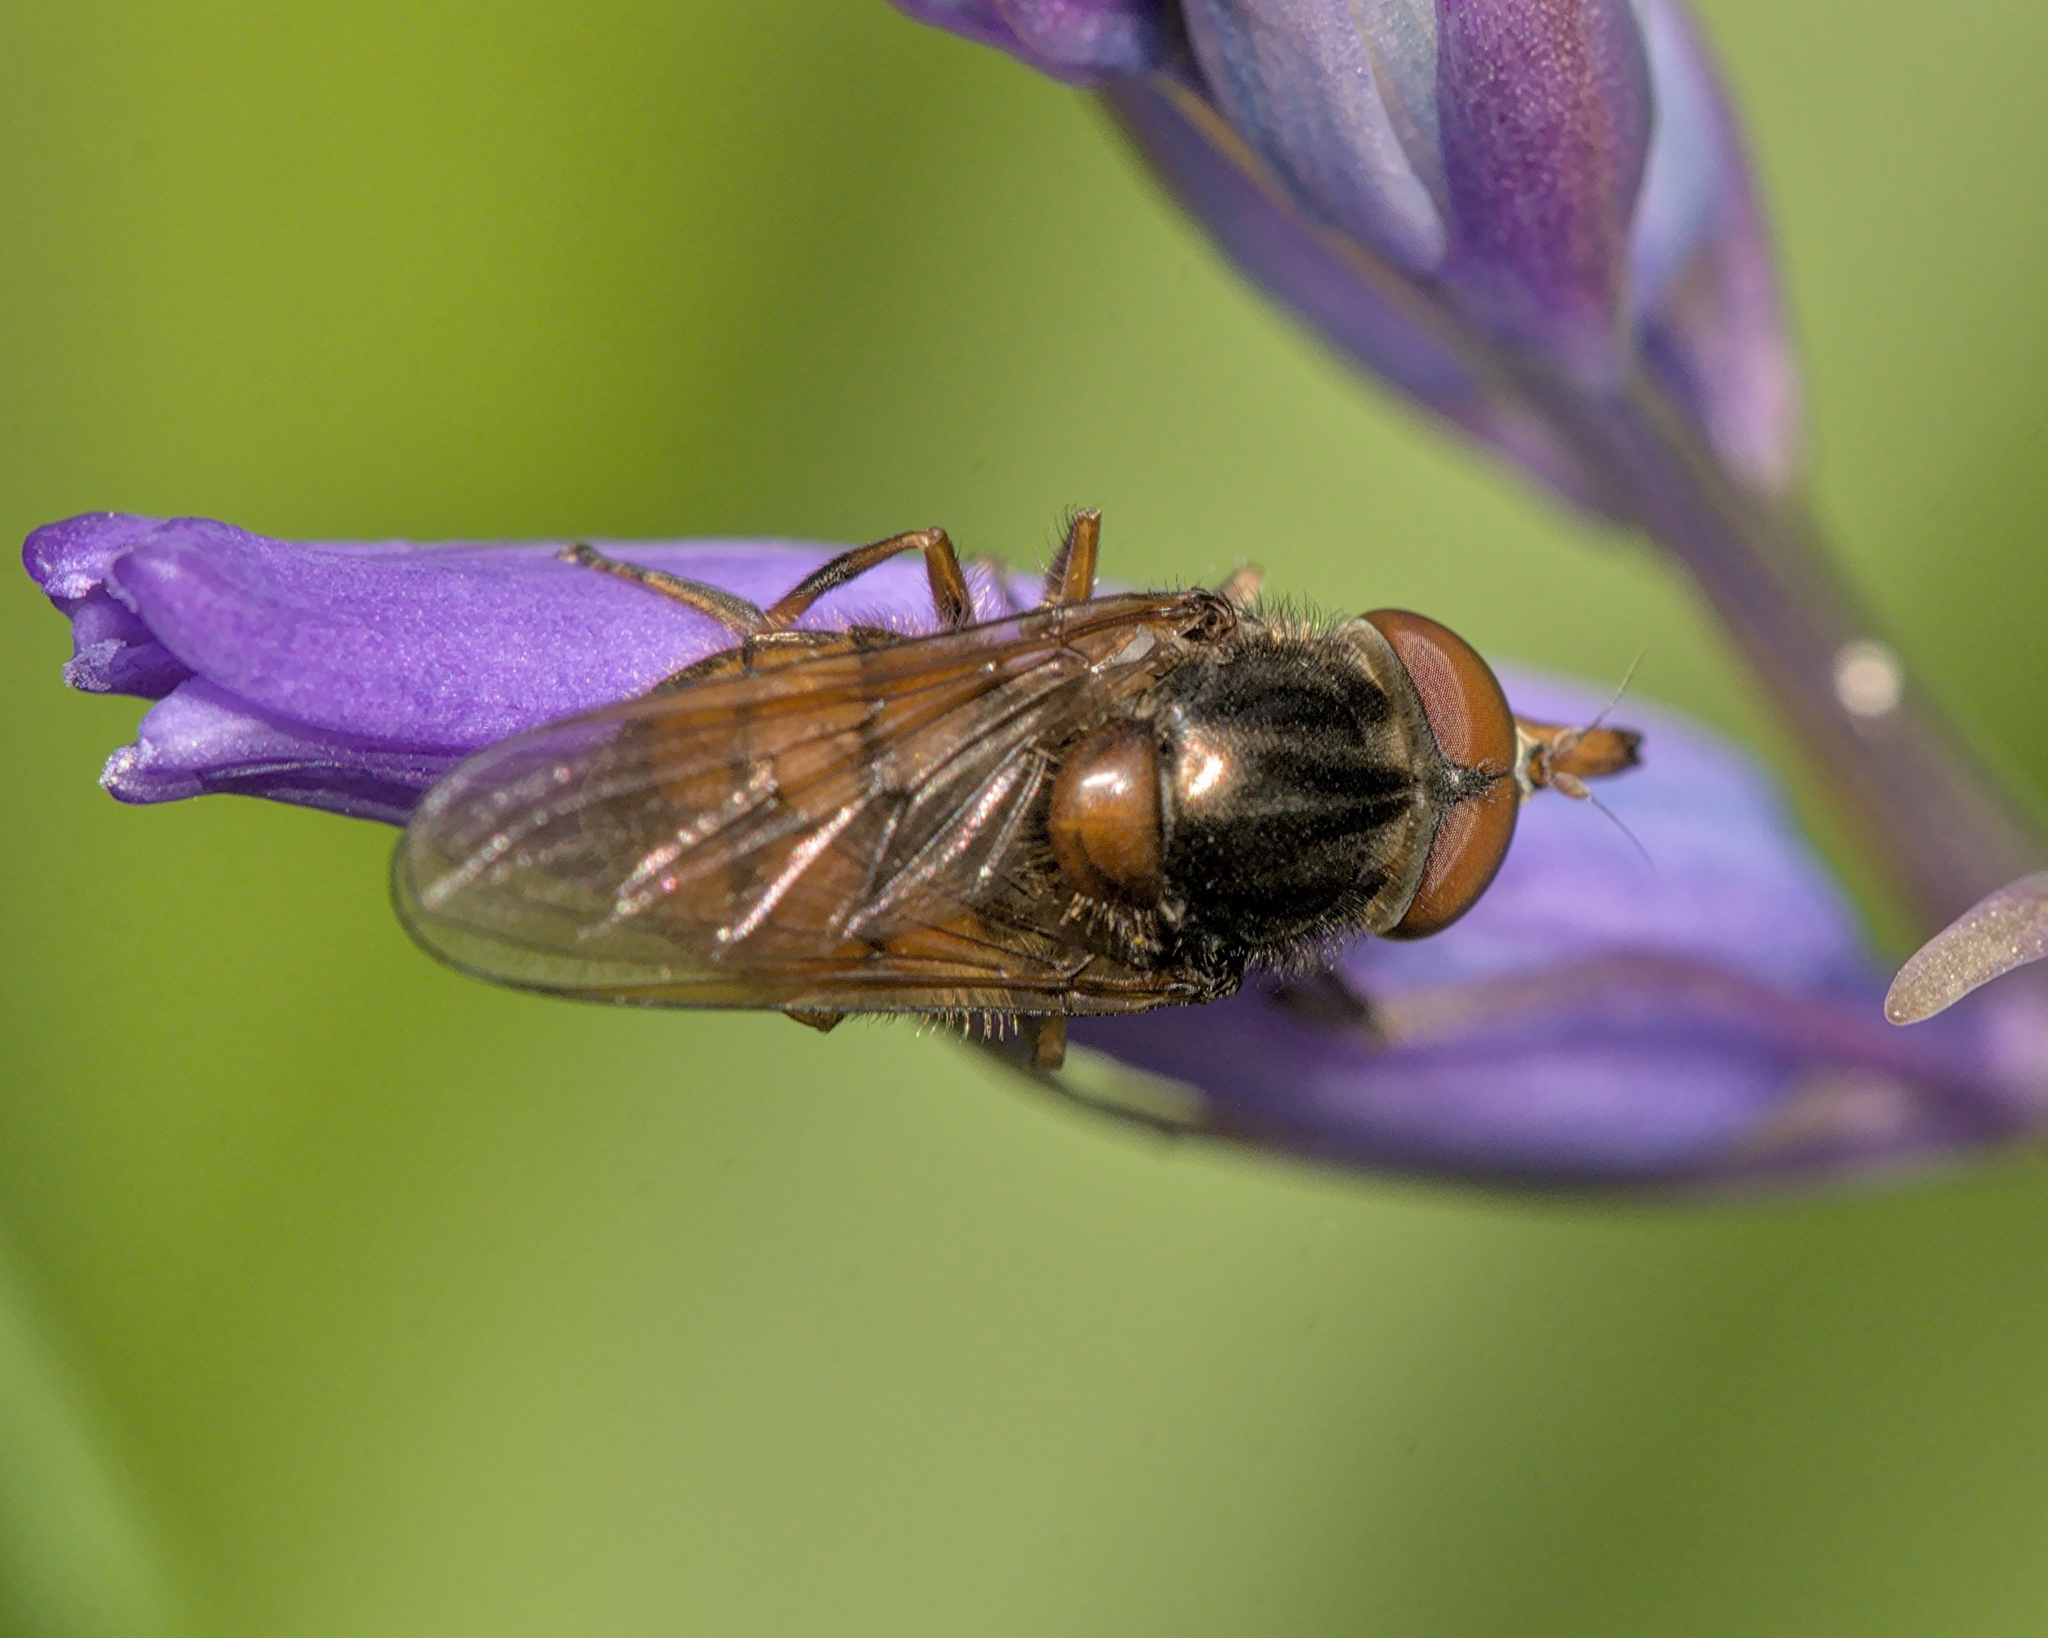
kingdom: Animalia
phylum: Arthropoda
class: Insecta
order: Diptera
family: Syrphidae
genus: Rhingia
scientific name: Rhingia campestris
